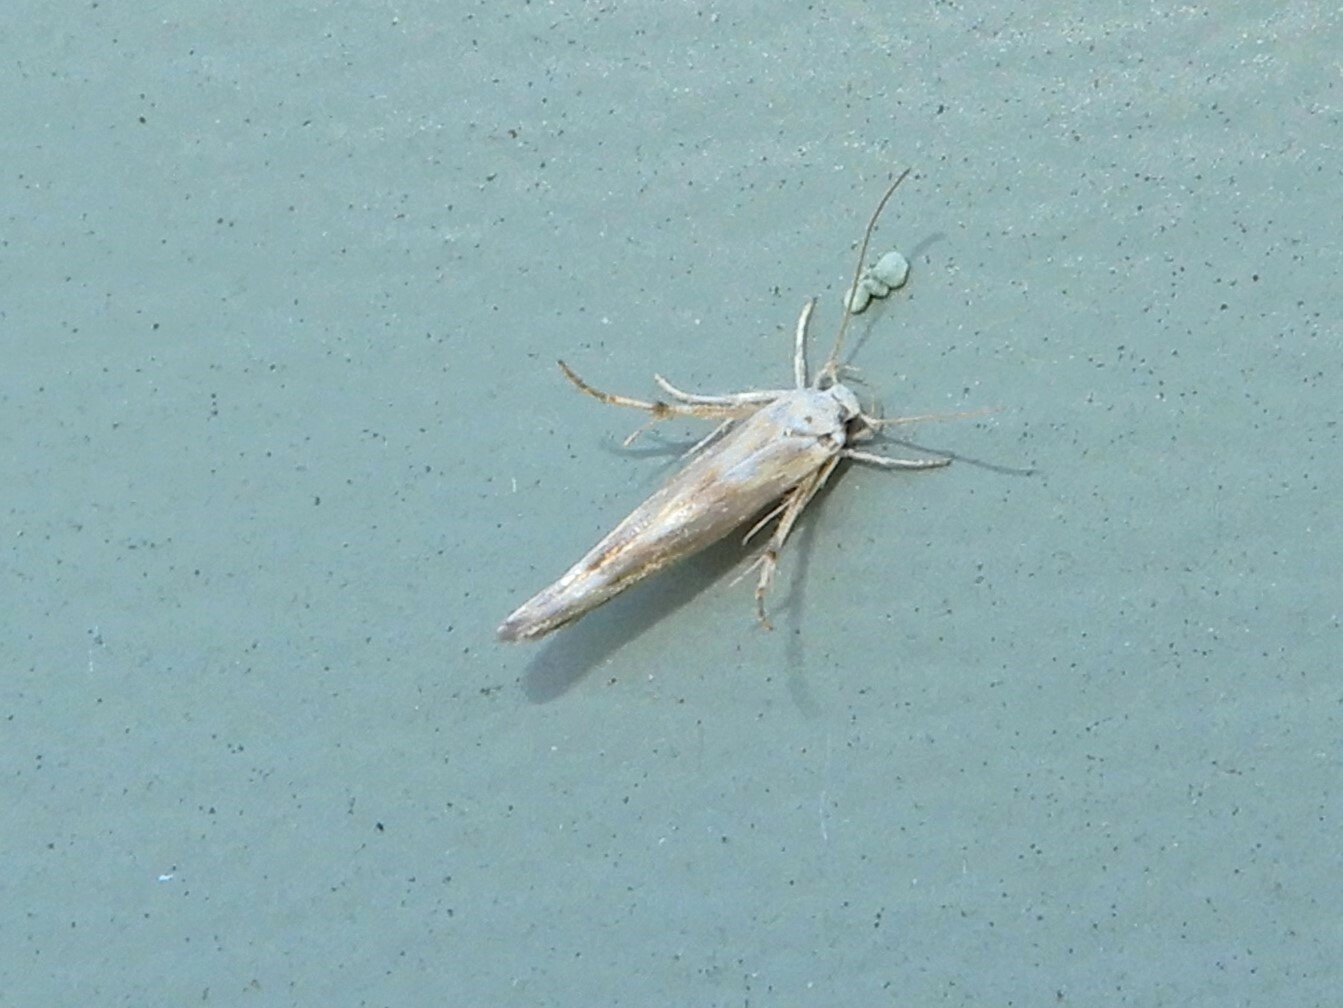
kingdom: Animalia
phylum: Arthropoda
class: Insecta
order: Lepidoptera
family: Stathmopodidae
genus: Stathmopoda
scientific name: Stathmopoda horticola
